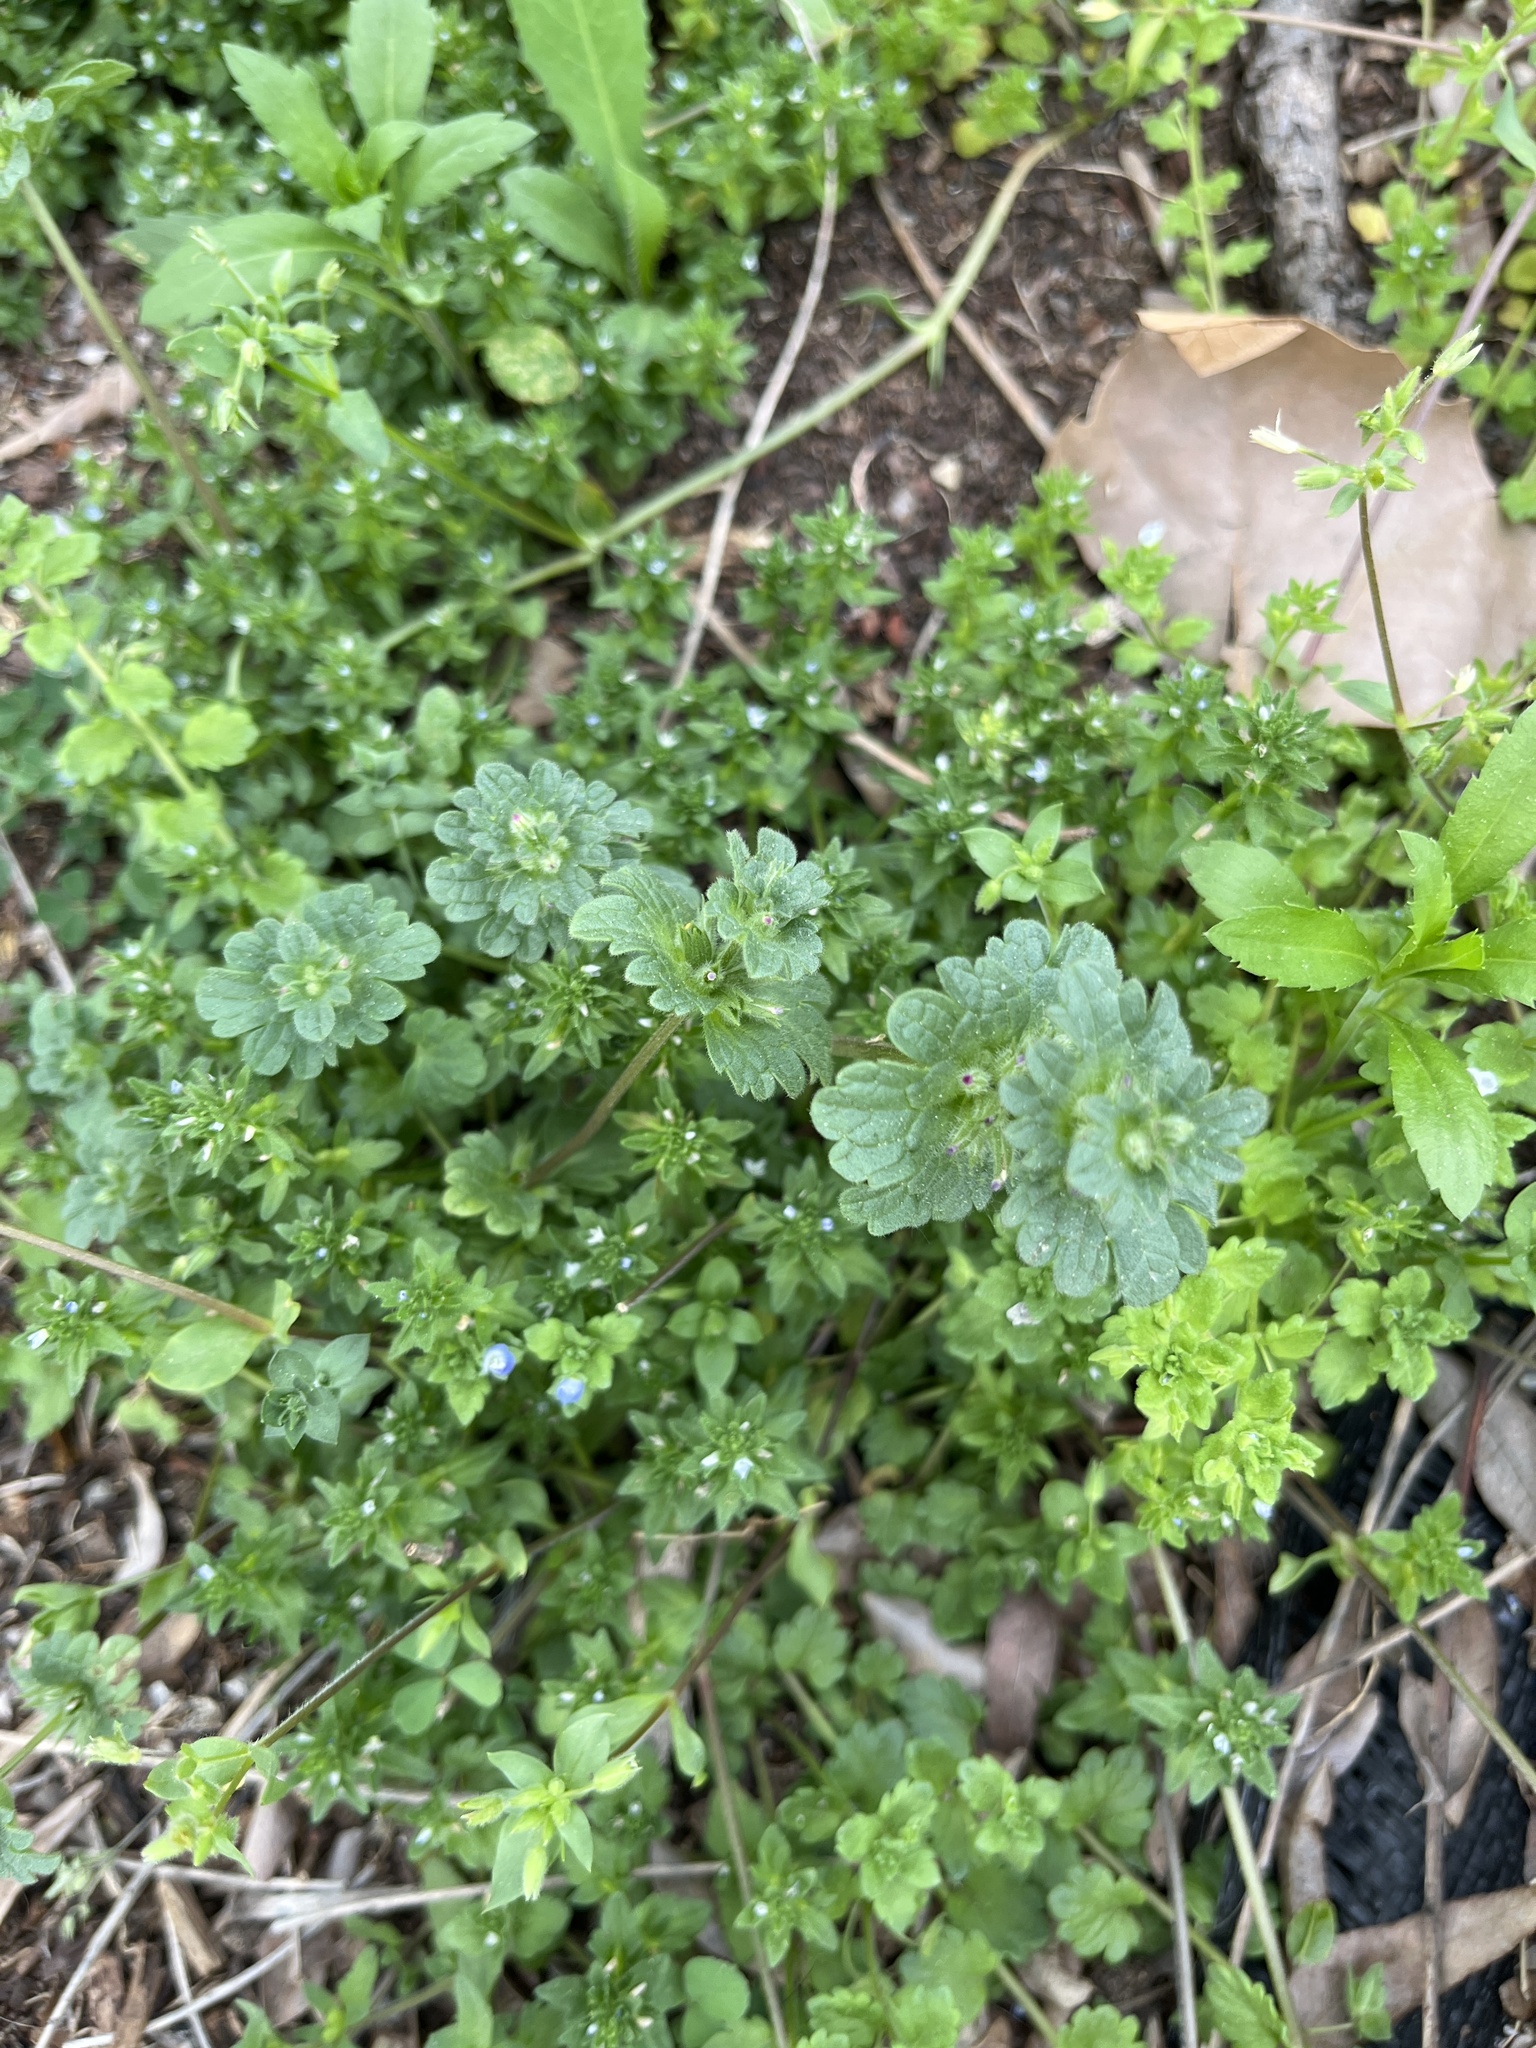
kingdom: Plantae
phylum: Tracheophyta
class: Magnoliopsida
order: Lamiales
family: Lamiaceae
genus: Lamium
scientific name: Lamium amplexicaule
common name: Henbit dead-nettle
